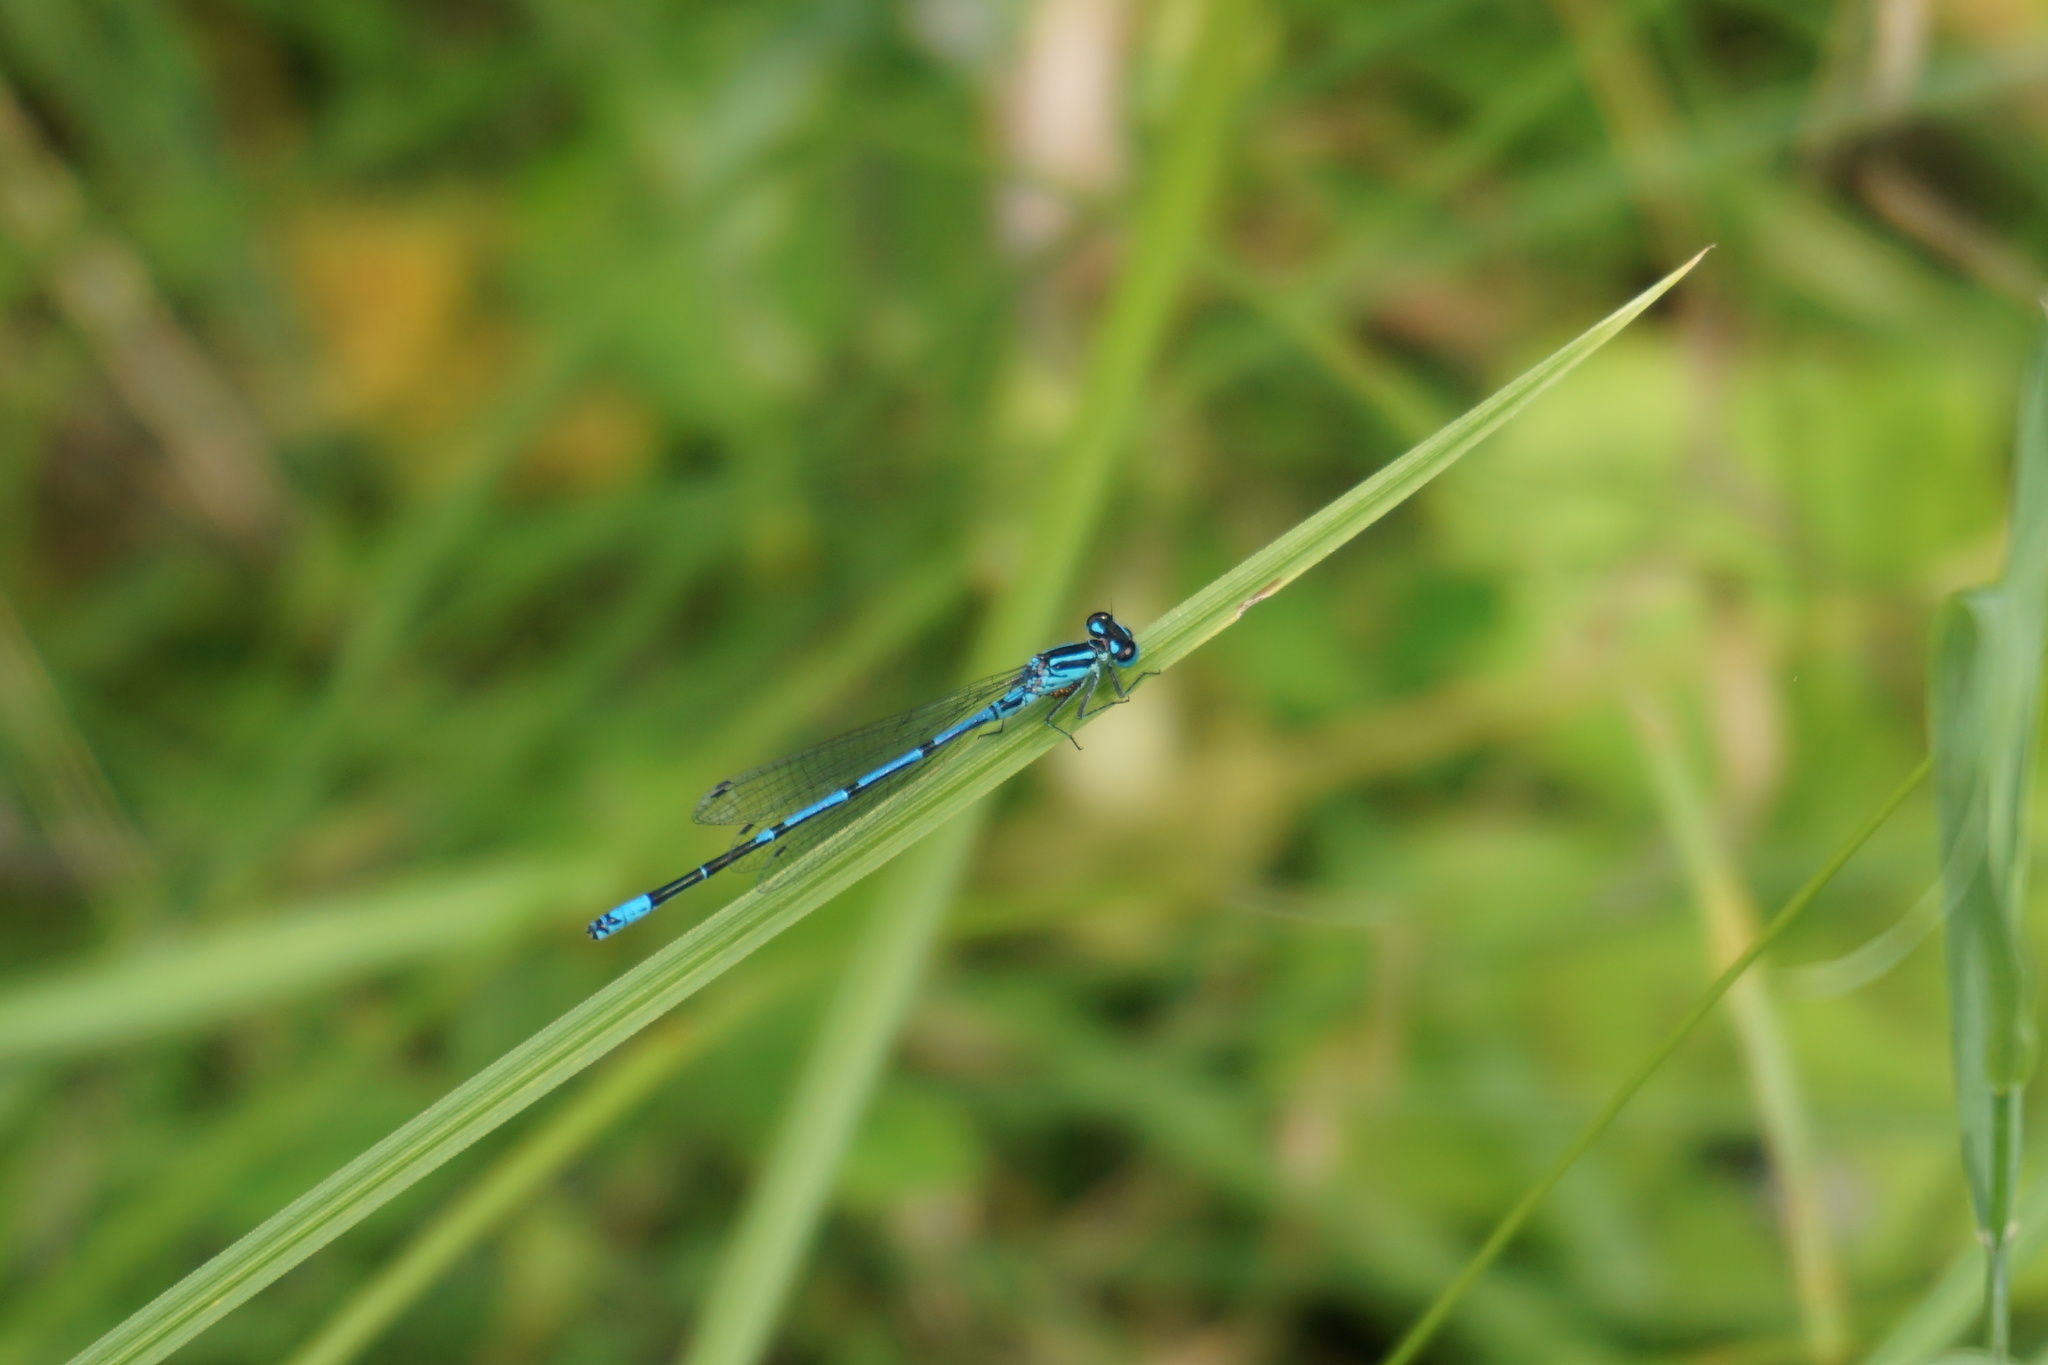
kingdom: Animalia
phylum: Arthropoda
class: Insecta
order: Odonata
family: Coenagrionidae
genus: Coenagrion
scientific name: Coenagrion puella
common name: Azure damselfly
